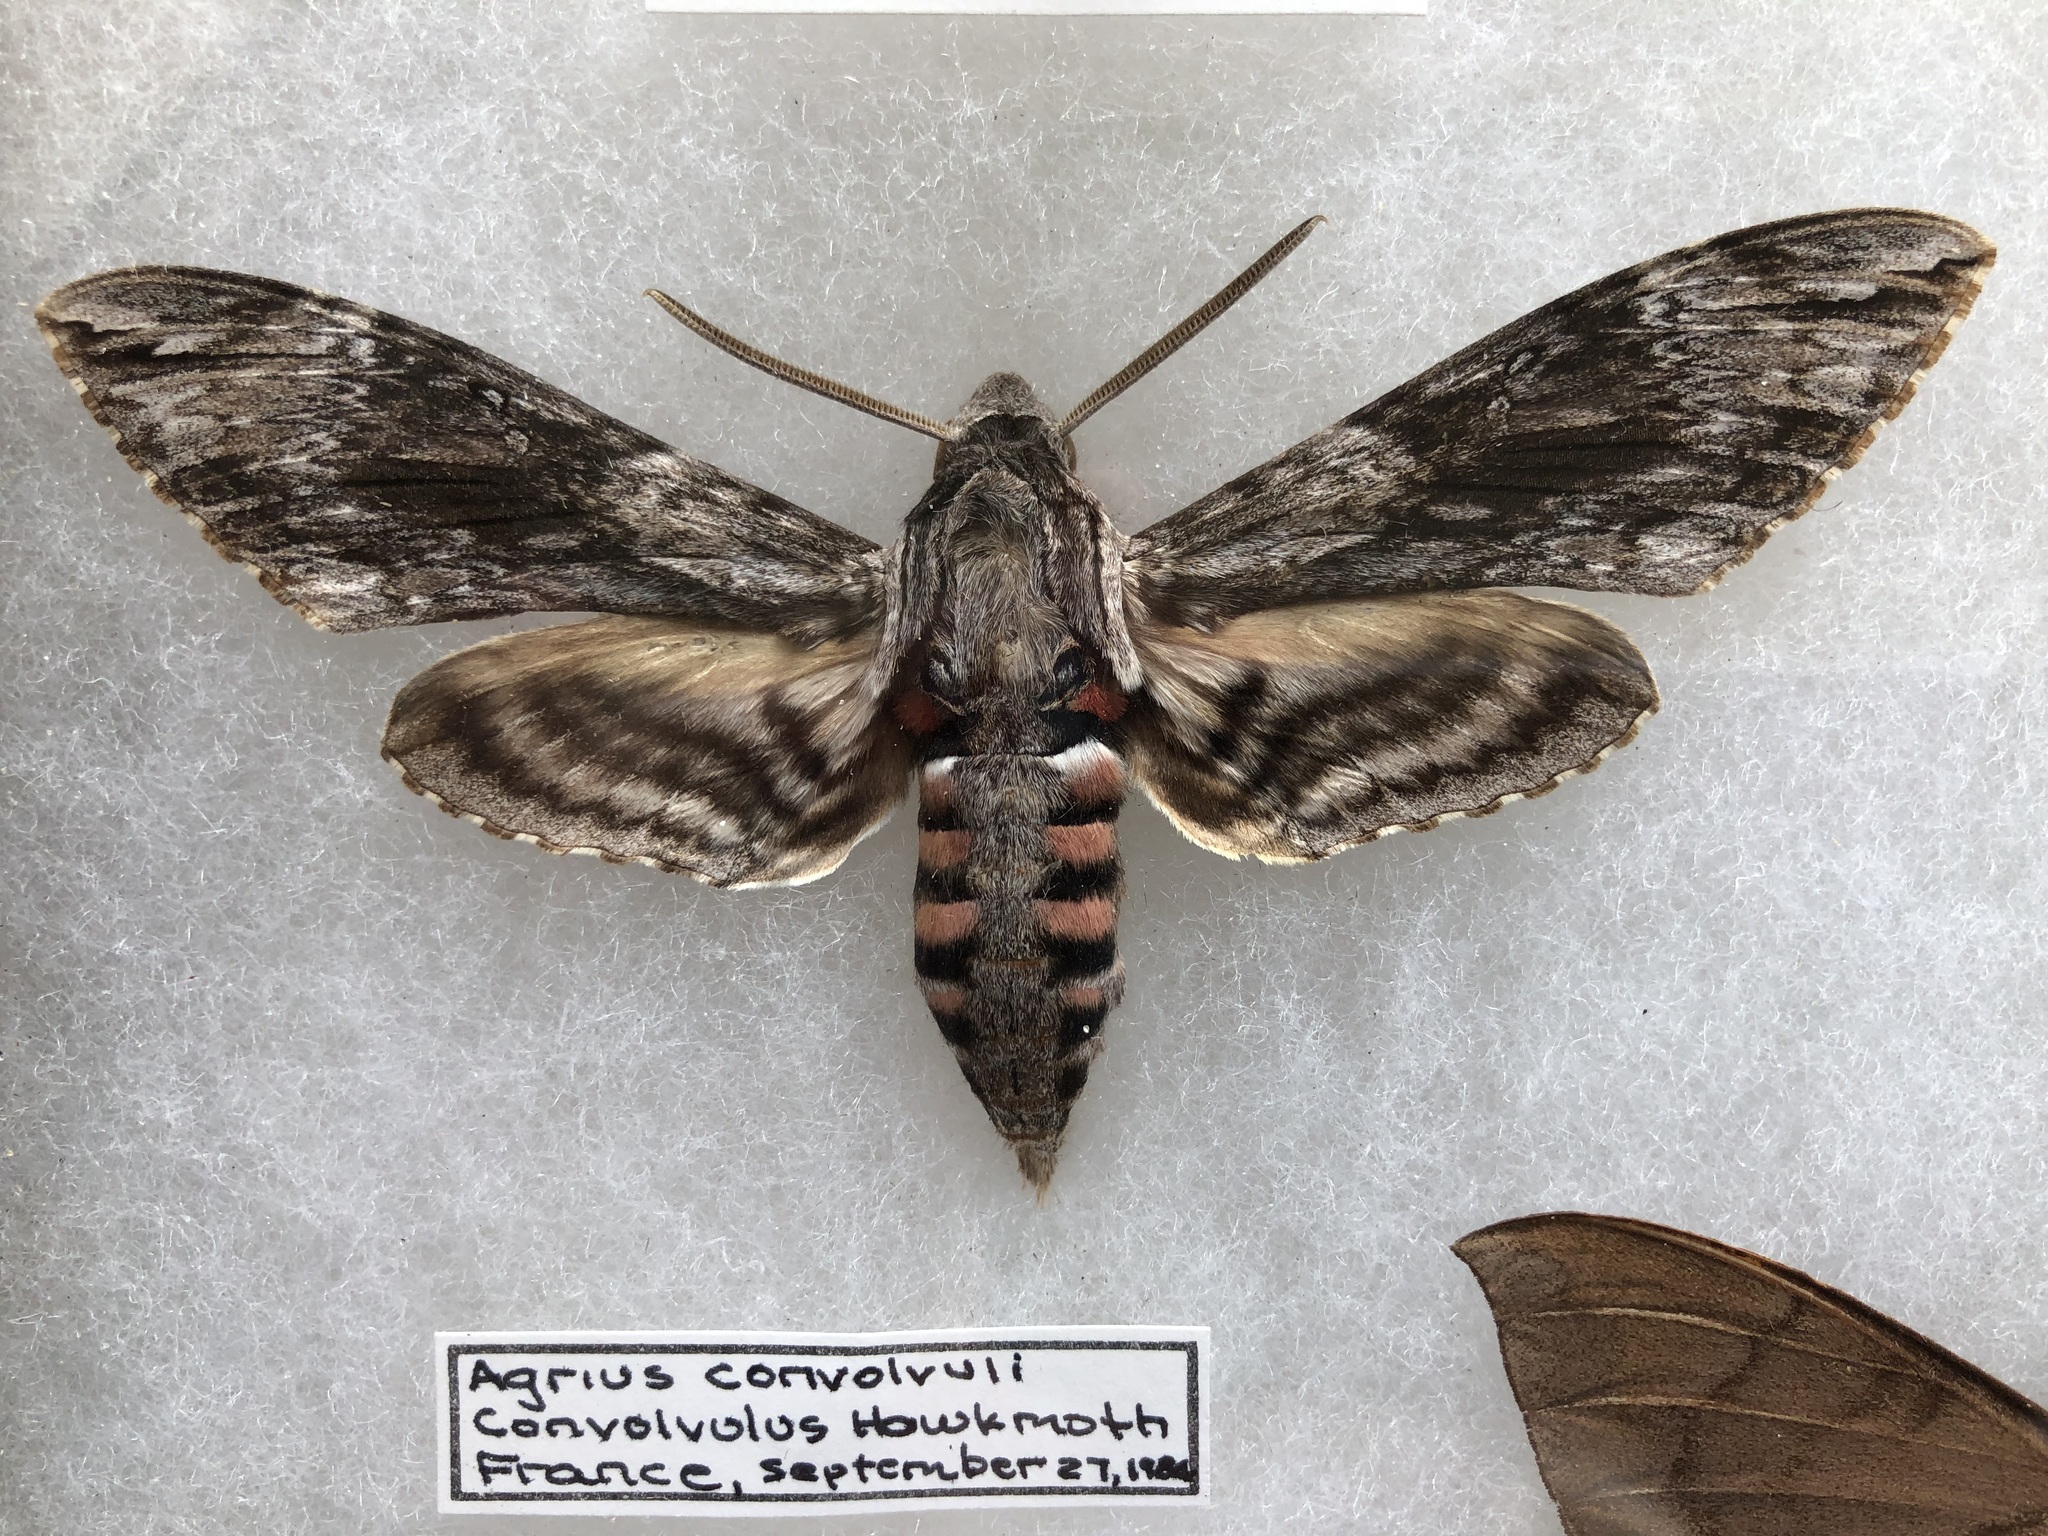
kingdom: Animalia
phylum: Arthropoda
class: Insecta
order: Lepidoptera
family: Sphingidae
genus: Agrius
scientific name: Agrius convolvuli
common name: Convolvulus hawkmoth
